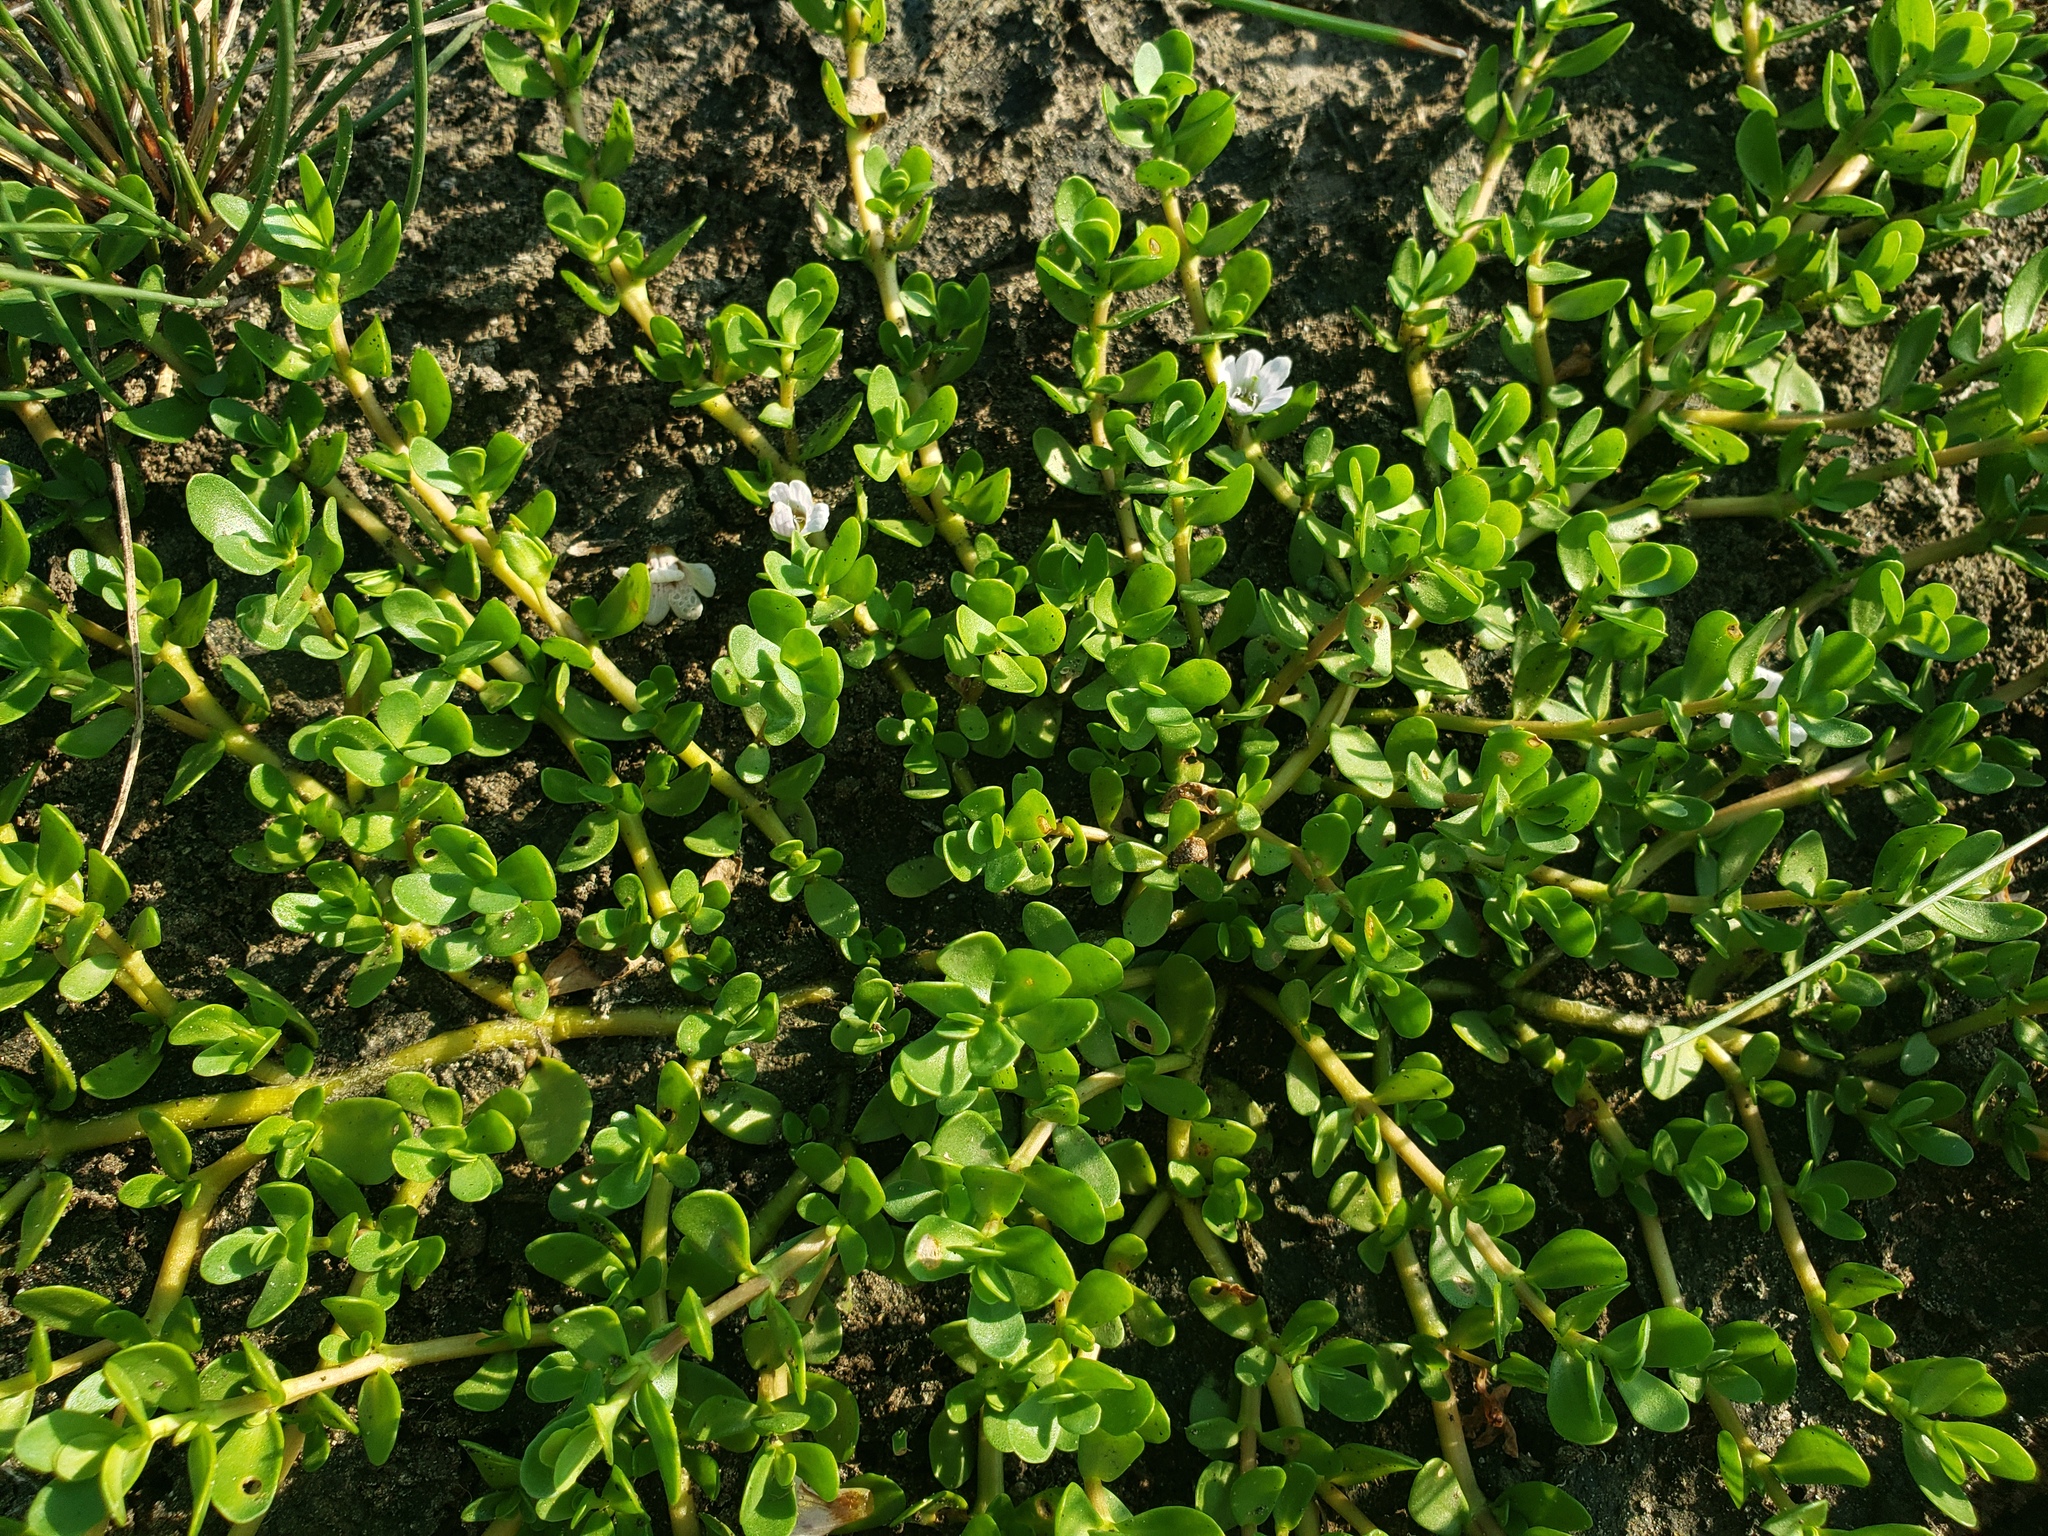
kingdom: Plantae
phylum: Tracheophyta
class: Magnoliopsida
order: Lamiales
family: Plantaginaceae
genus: Bacopa
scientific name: Bacopa monnieri
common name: Indian-pennywort
